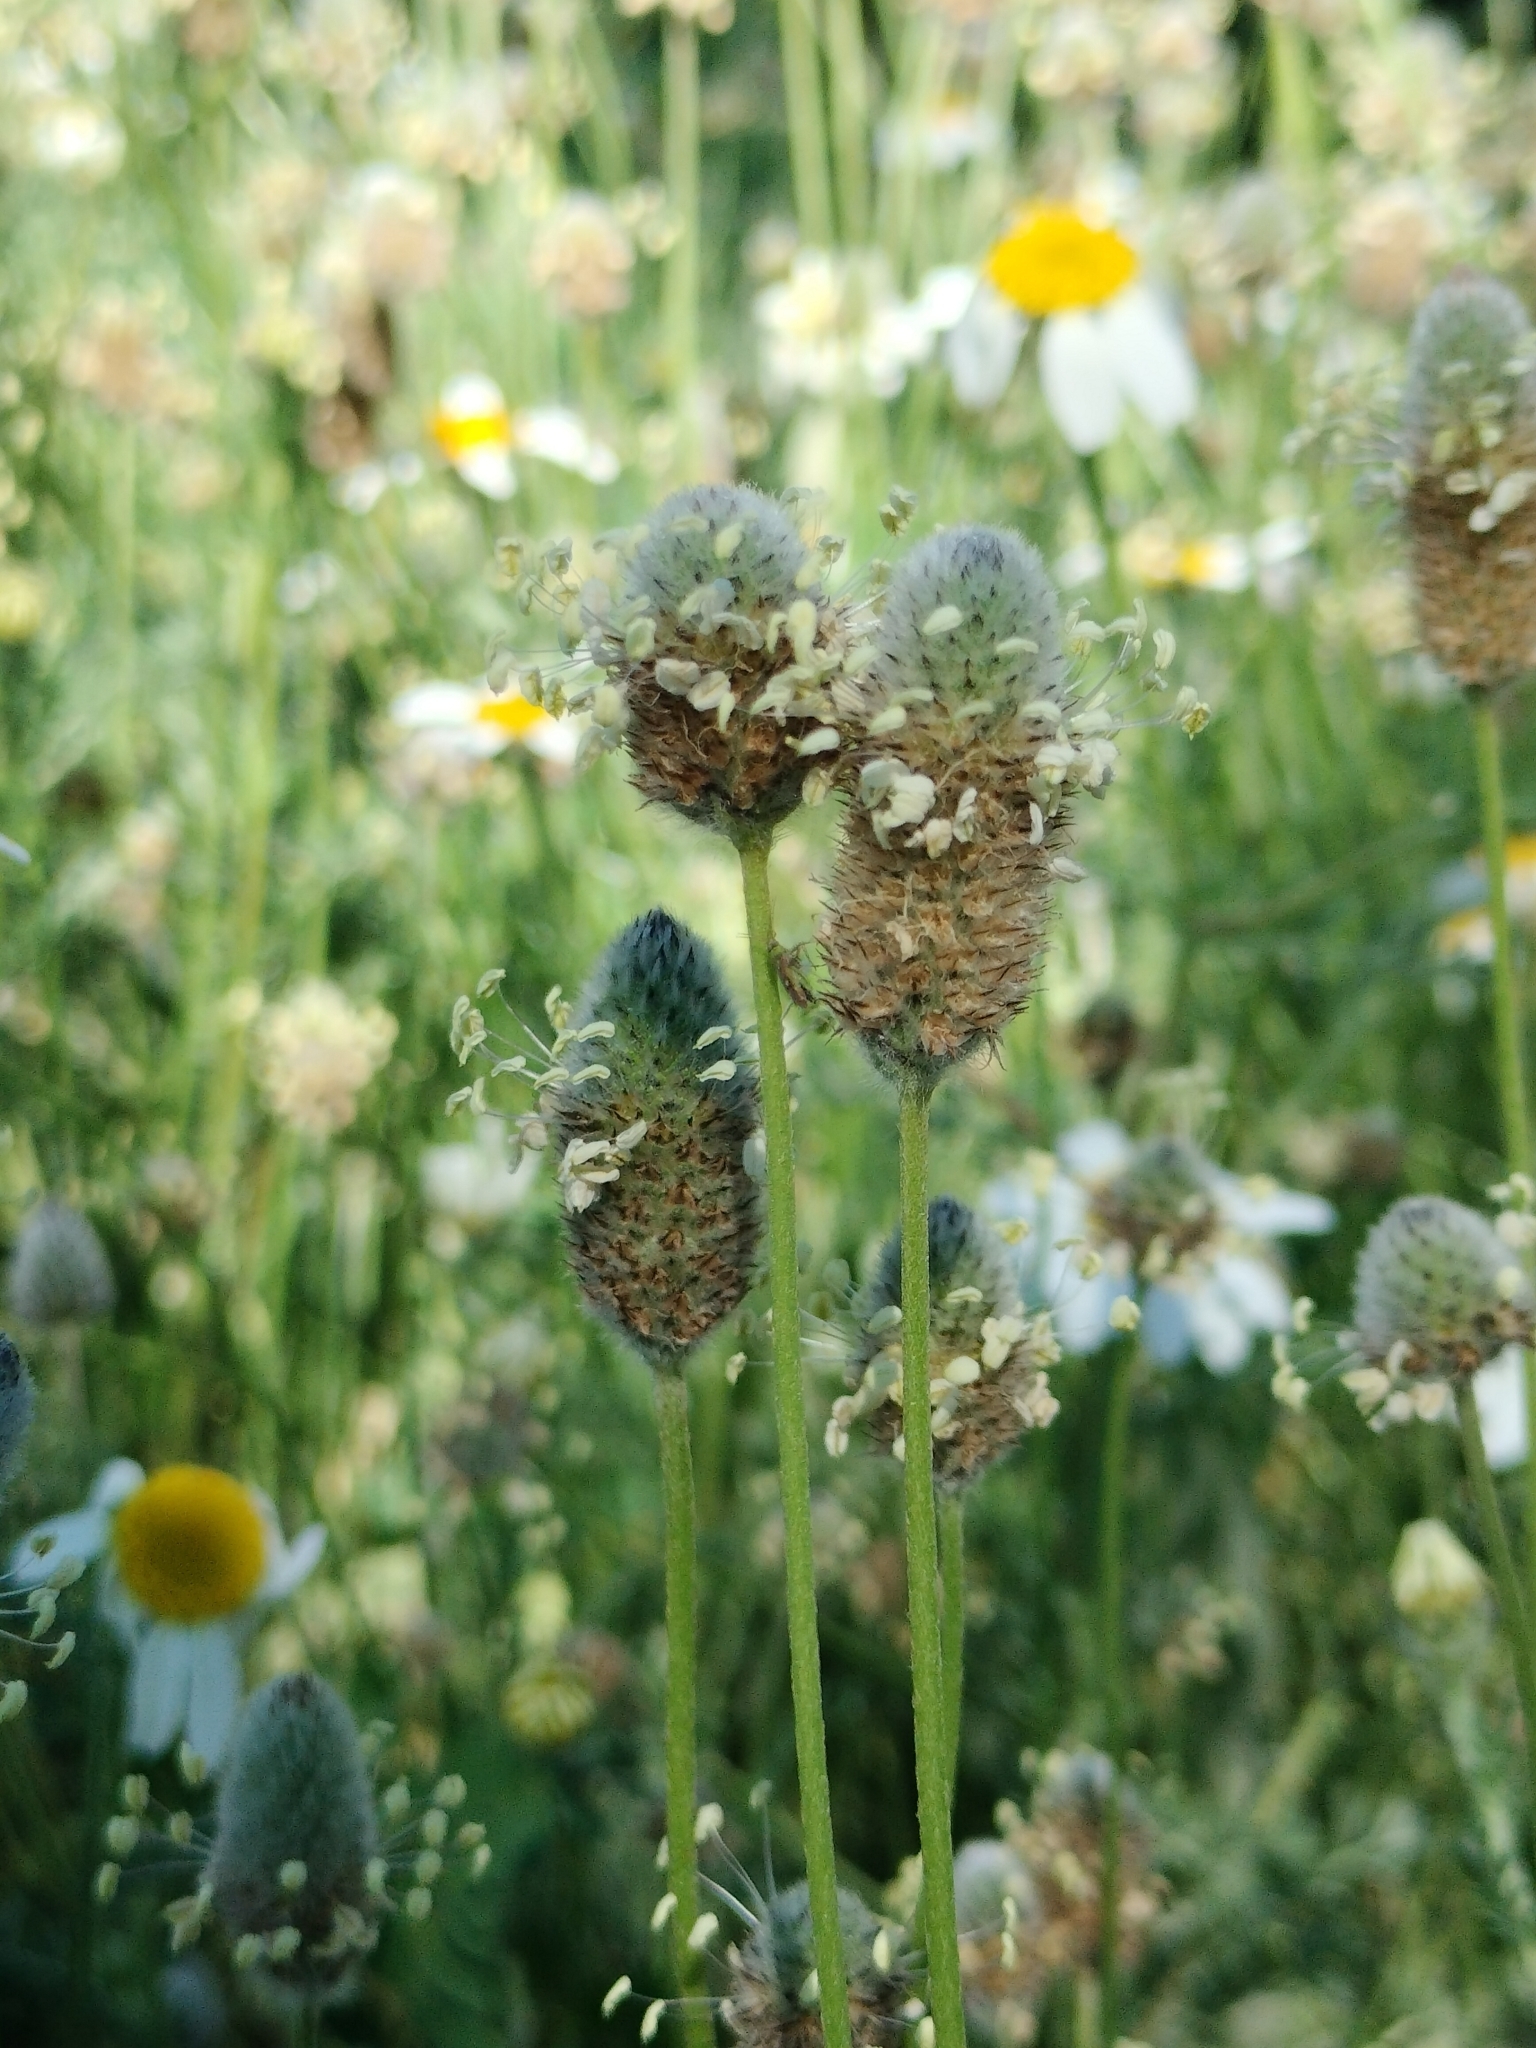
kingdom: Plantae
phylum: Tracheophyta
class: Magnoliopsida
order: Lamiales
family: Plantaginaceae
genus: Plantago
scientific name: Plantago lagopus
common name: Hare-foot plantain
